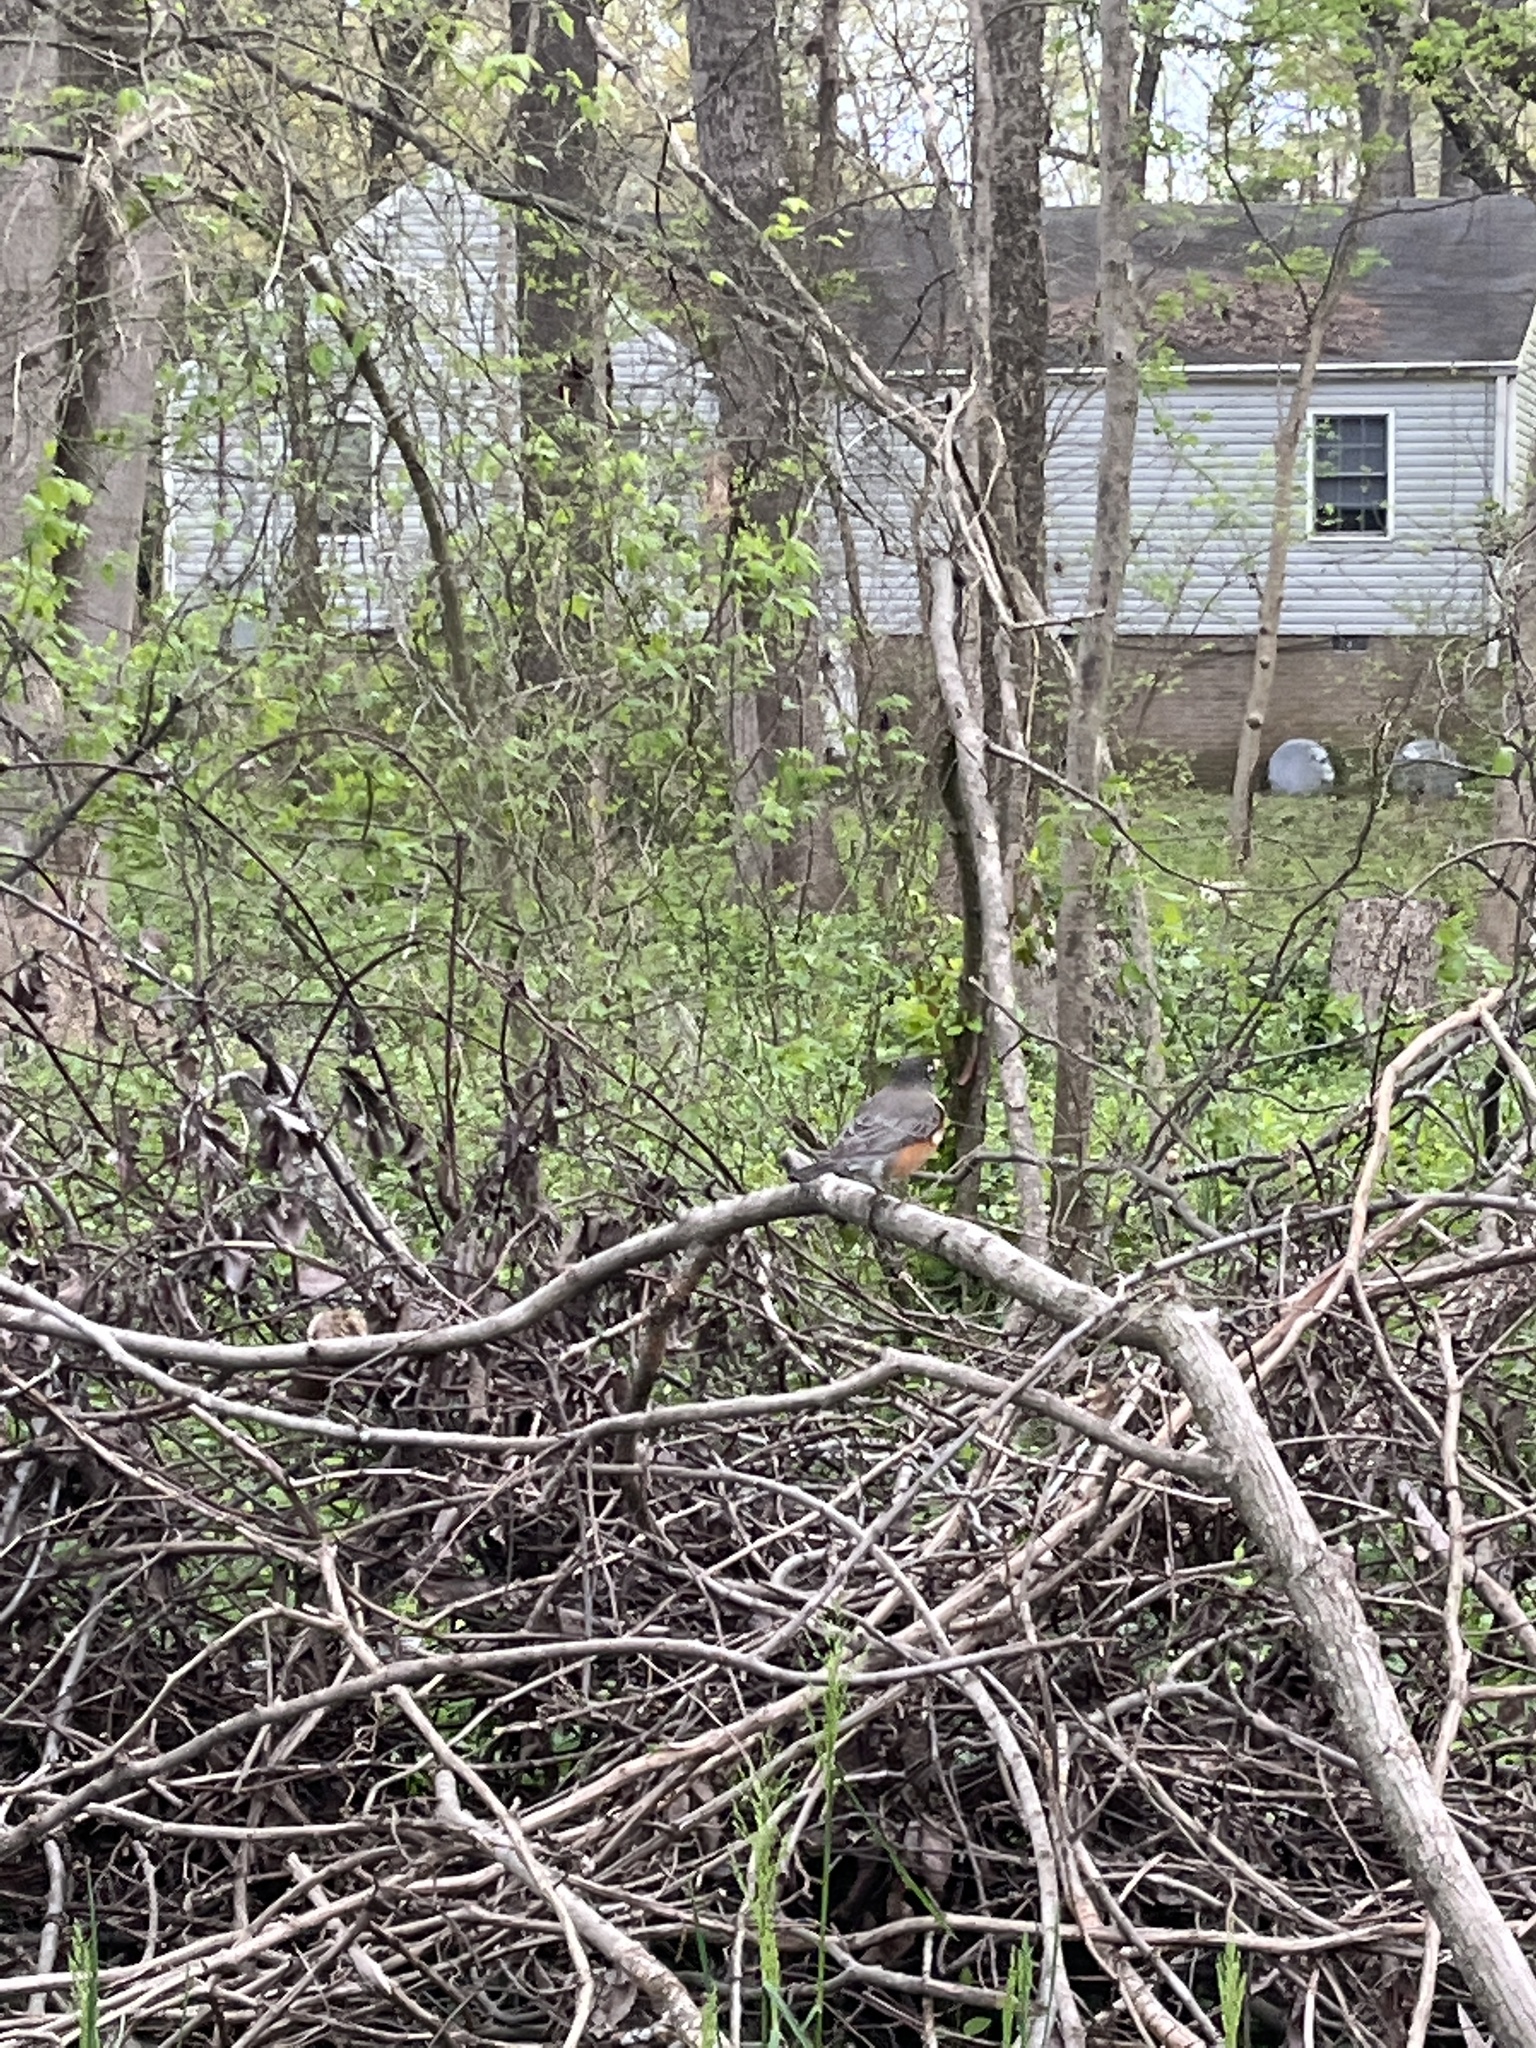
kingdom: Animalia
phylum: Chordata
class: Aves
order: Passeriformes
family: Turdidae
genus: Turdus
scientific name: Turdus migratorius
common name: American robin
